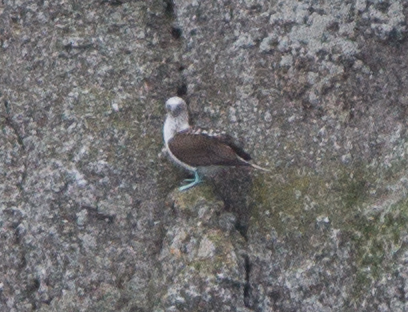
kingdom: Animalia
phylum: Chordata
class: Aves
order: Suliformes
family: Sulidae
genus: Sula
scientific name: Sula nebouxii
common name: Blue-footed booby
